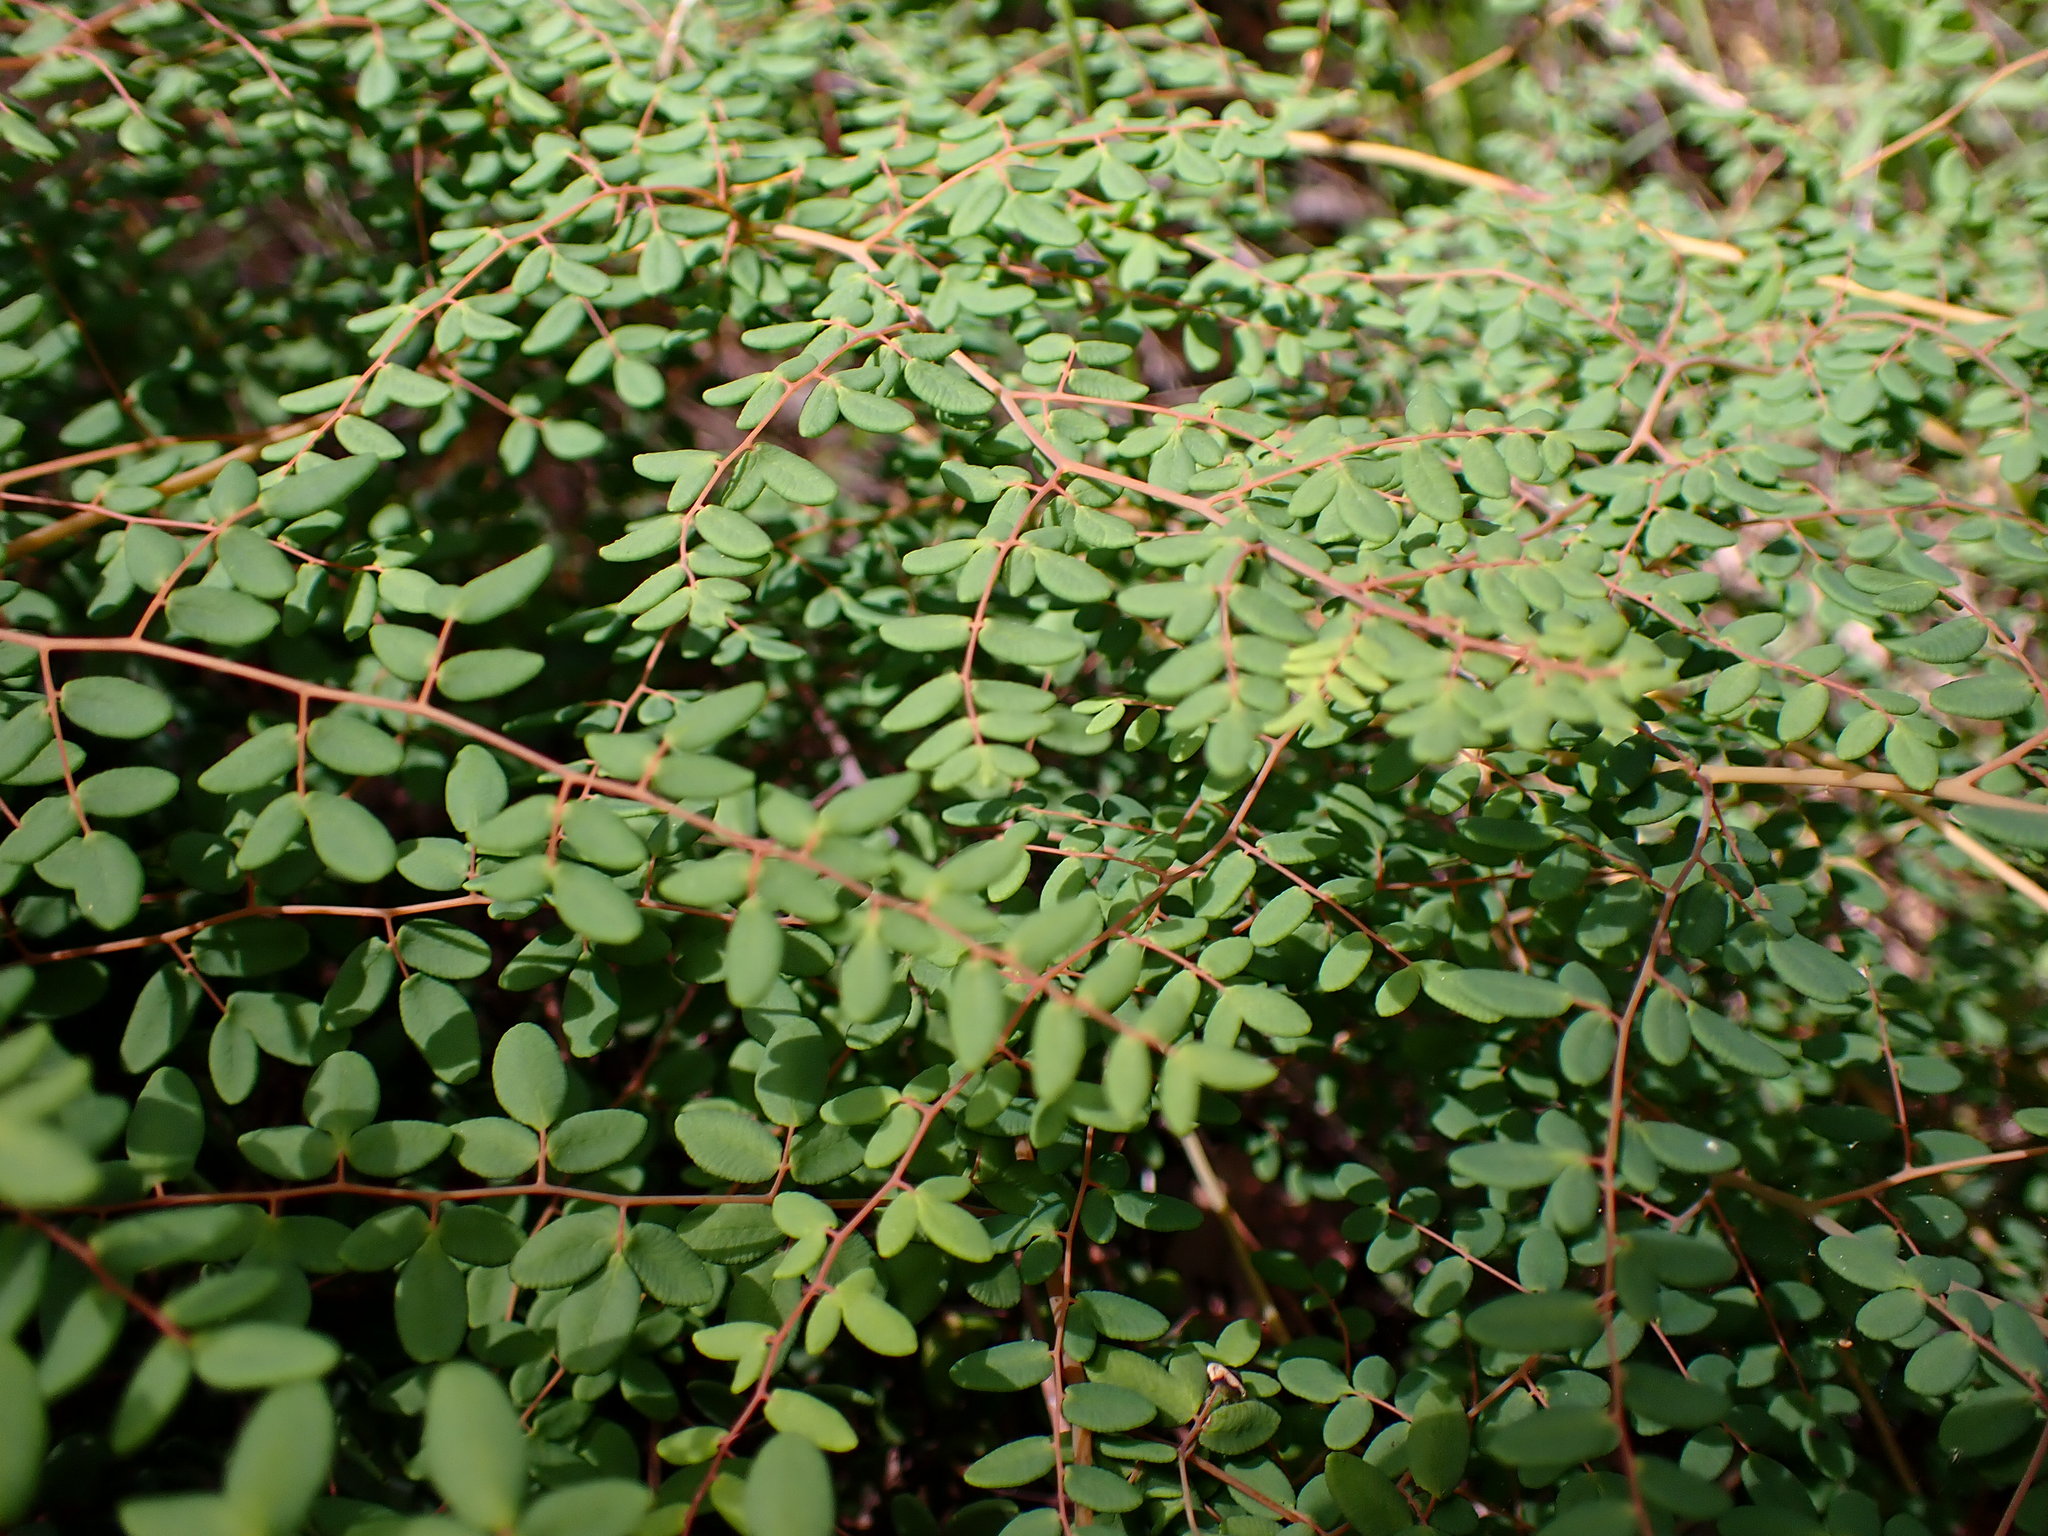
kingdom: Plantae
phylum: Tracheophyta
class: Polypodiopsida
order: Polypodiales
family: Pteridaceae
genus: Pellaea
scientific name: Pellaea andromedifolia
